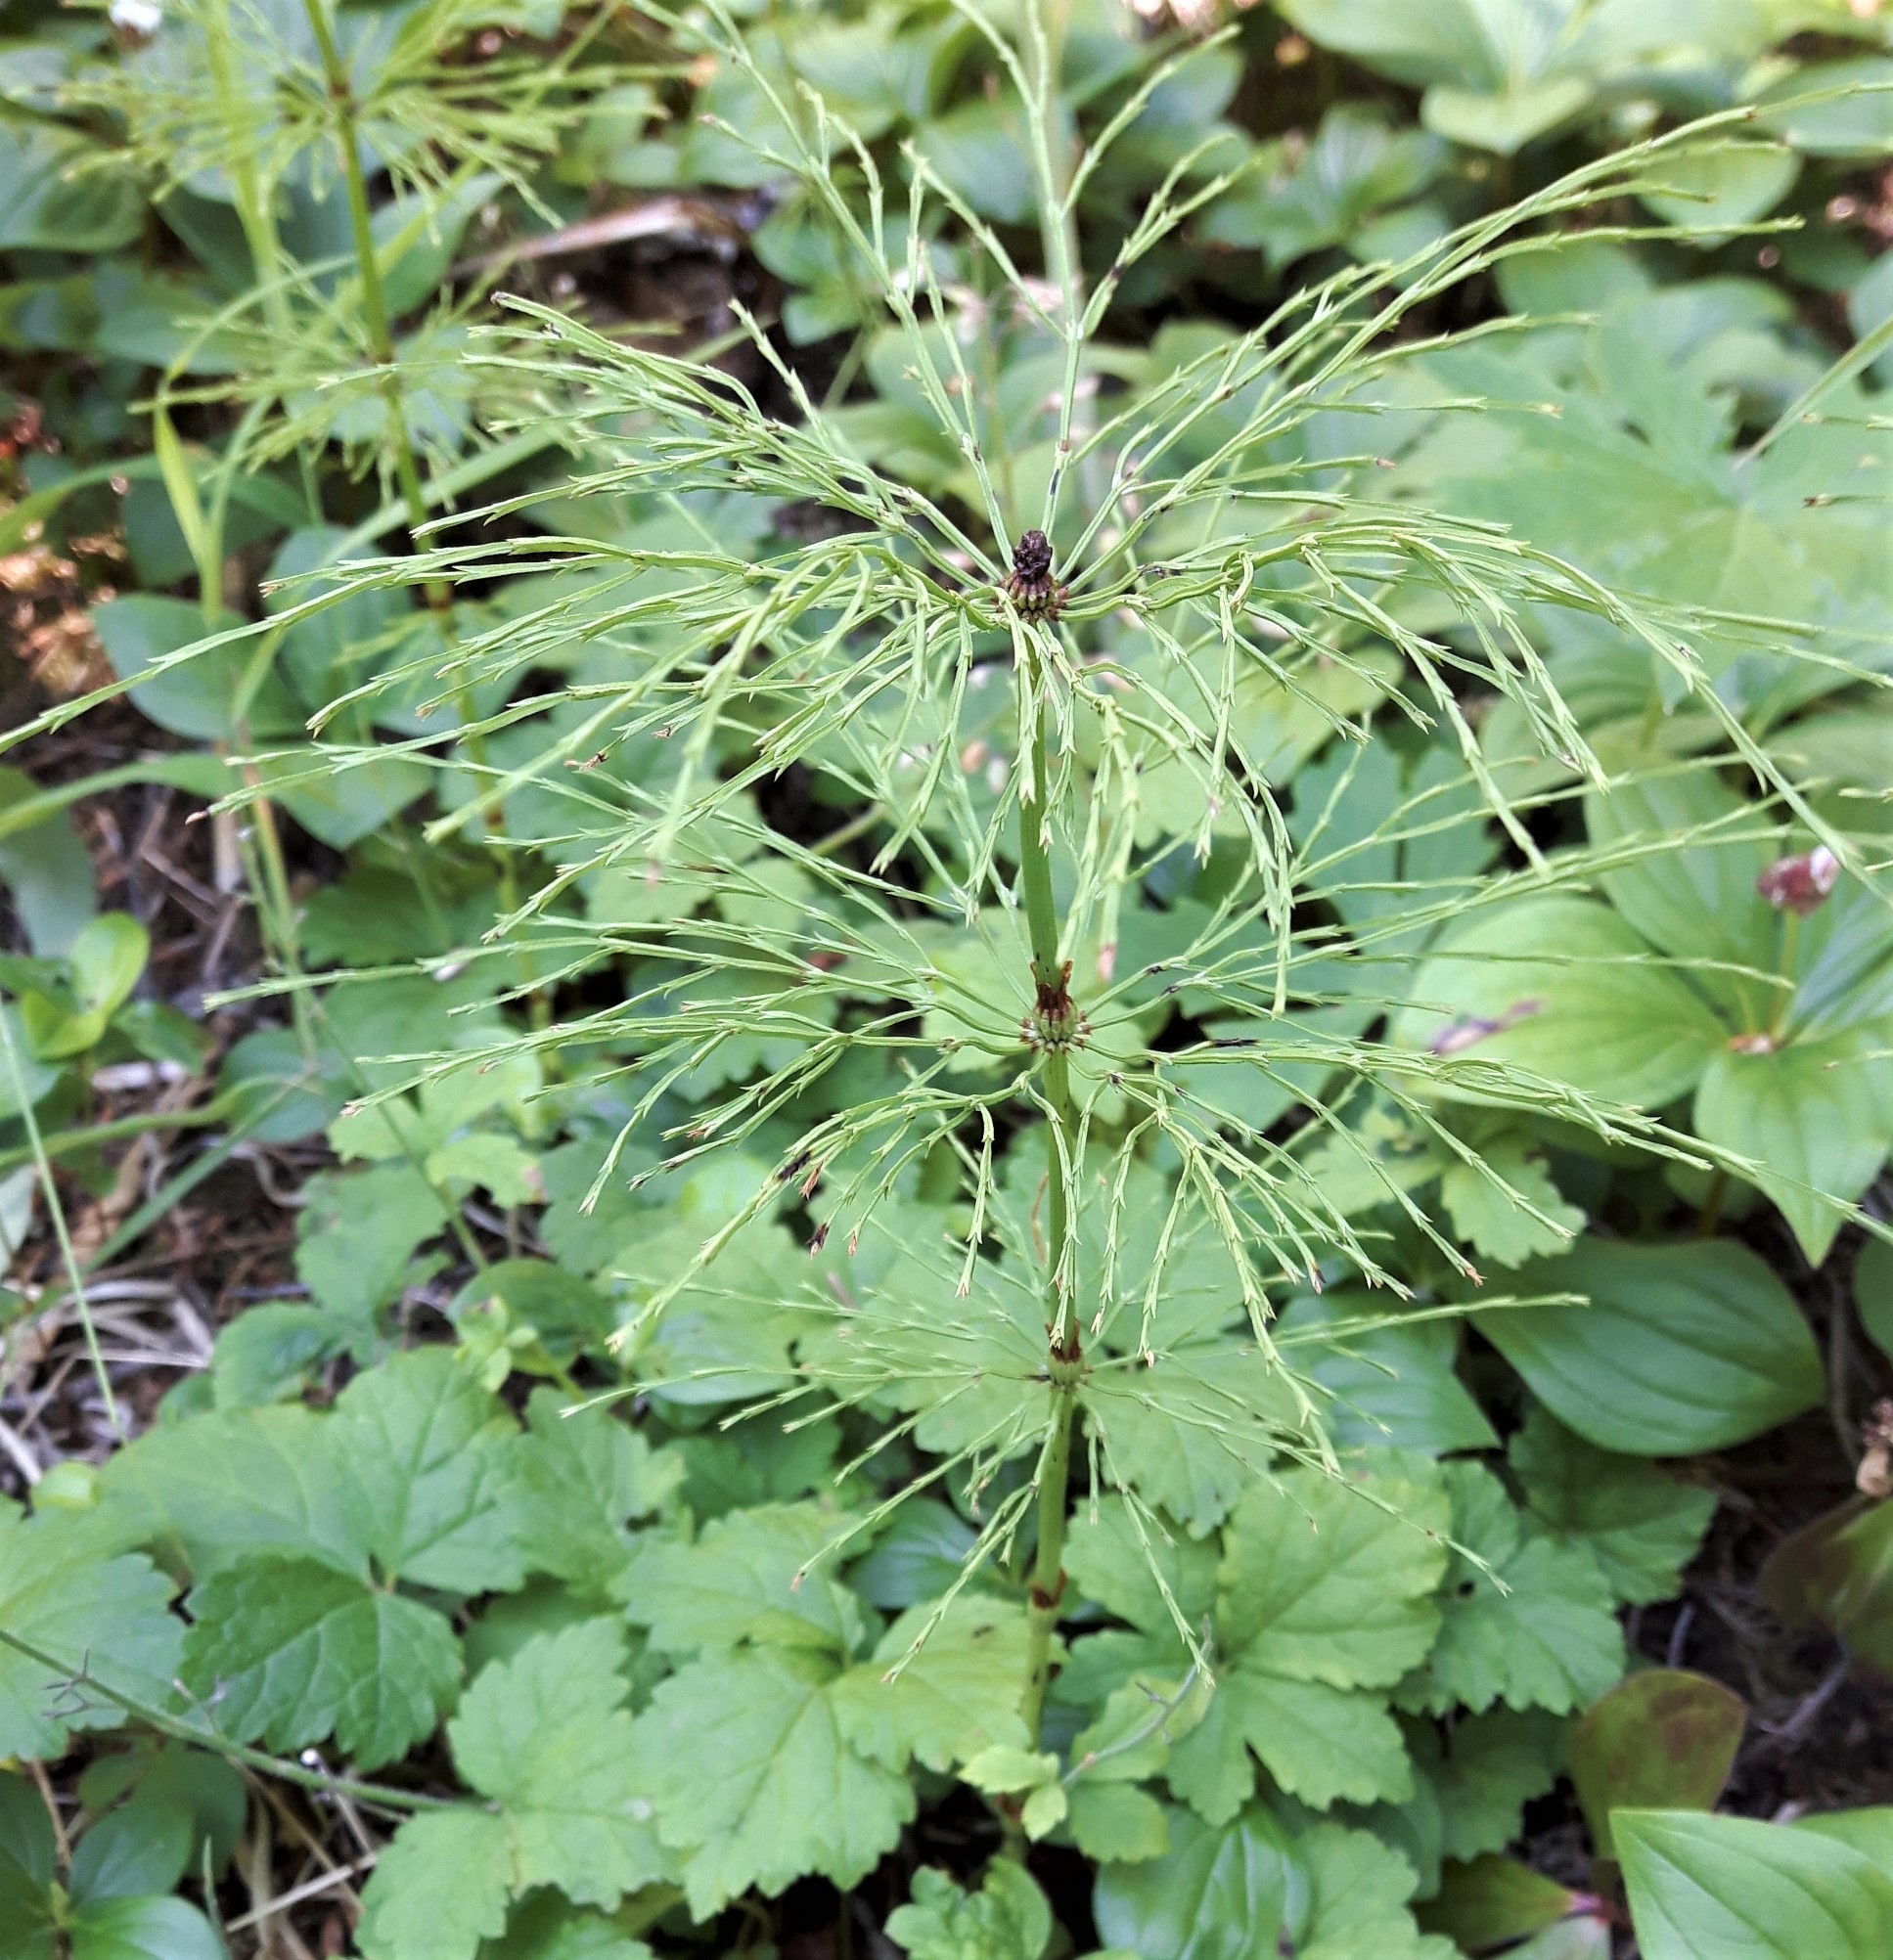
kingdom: Plantae
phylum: Tracheophyta
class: Polypodiopsida
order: Equisetales
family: Equisetaceae
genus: Equisetum
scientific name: Equisetum sylvaticum
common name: Wood horsetail
